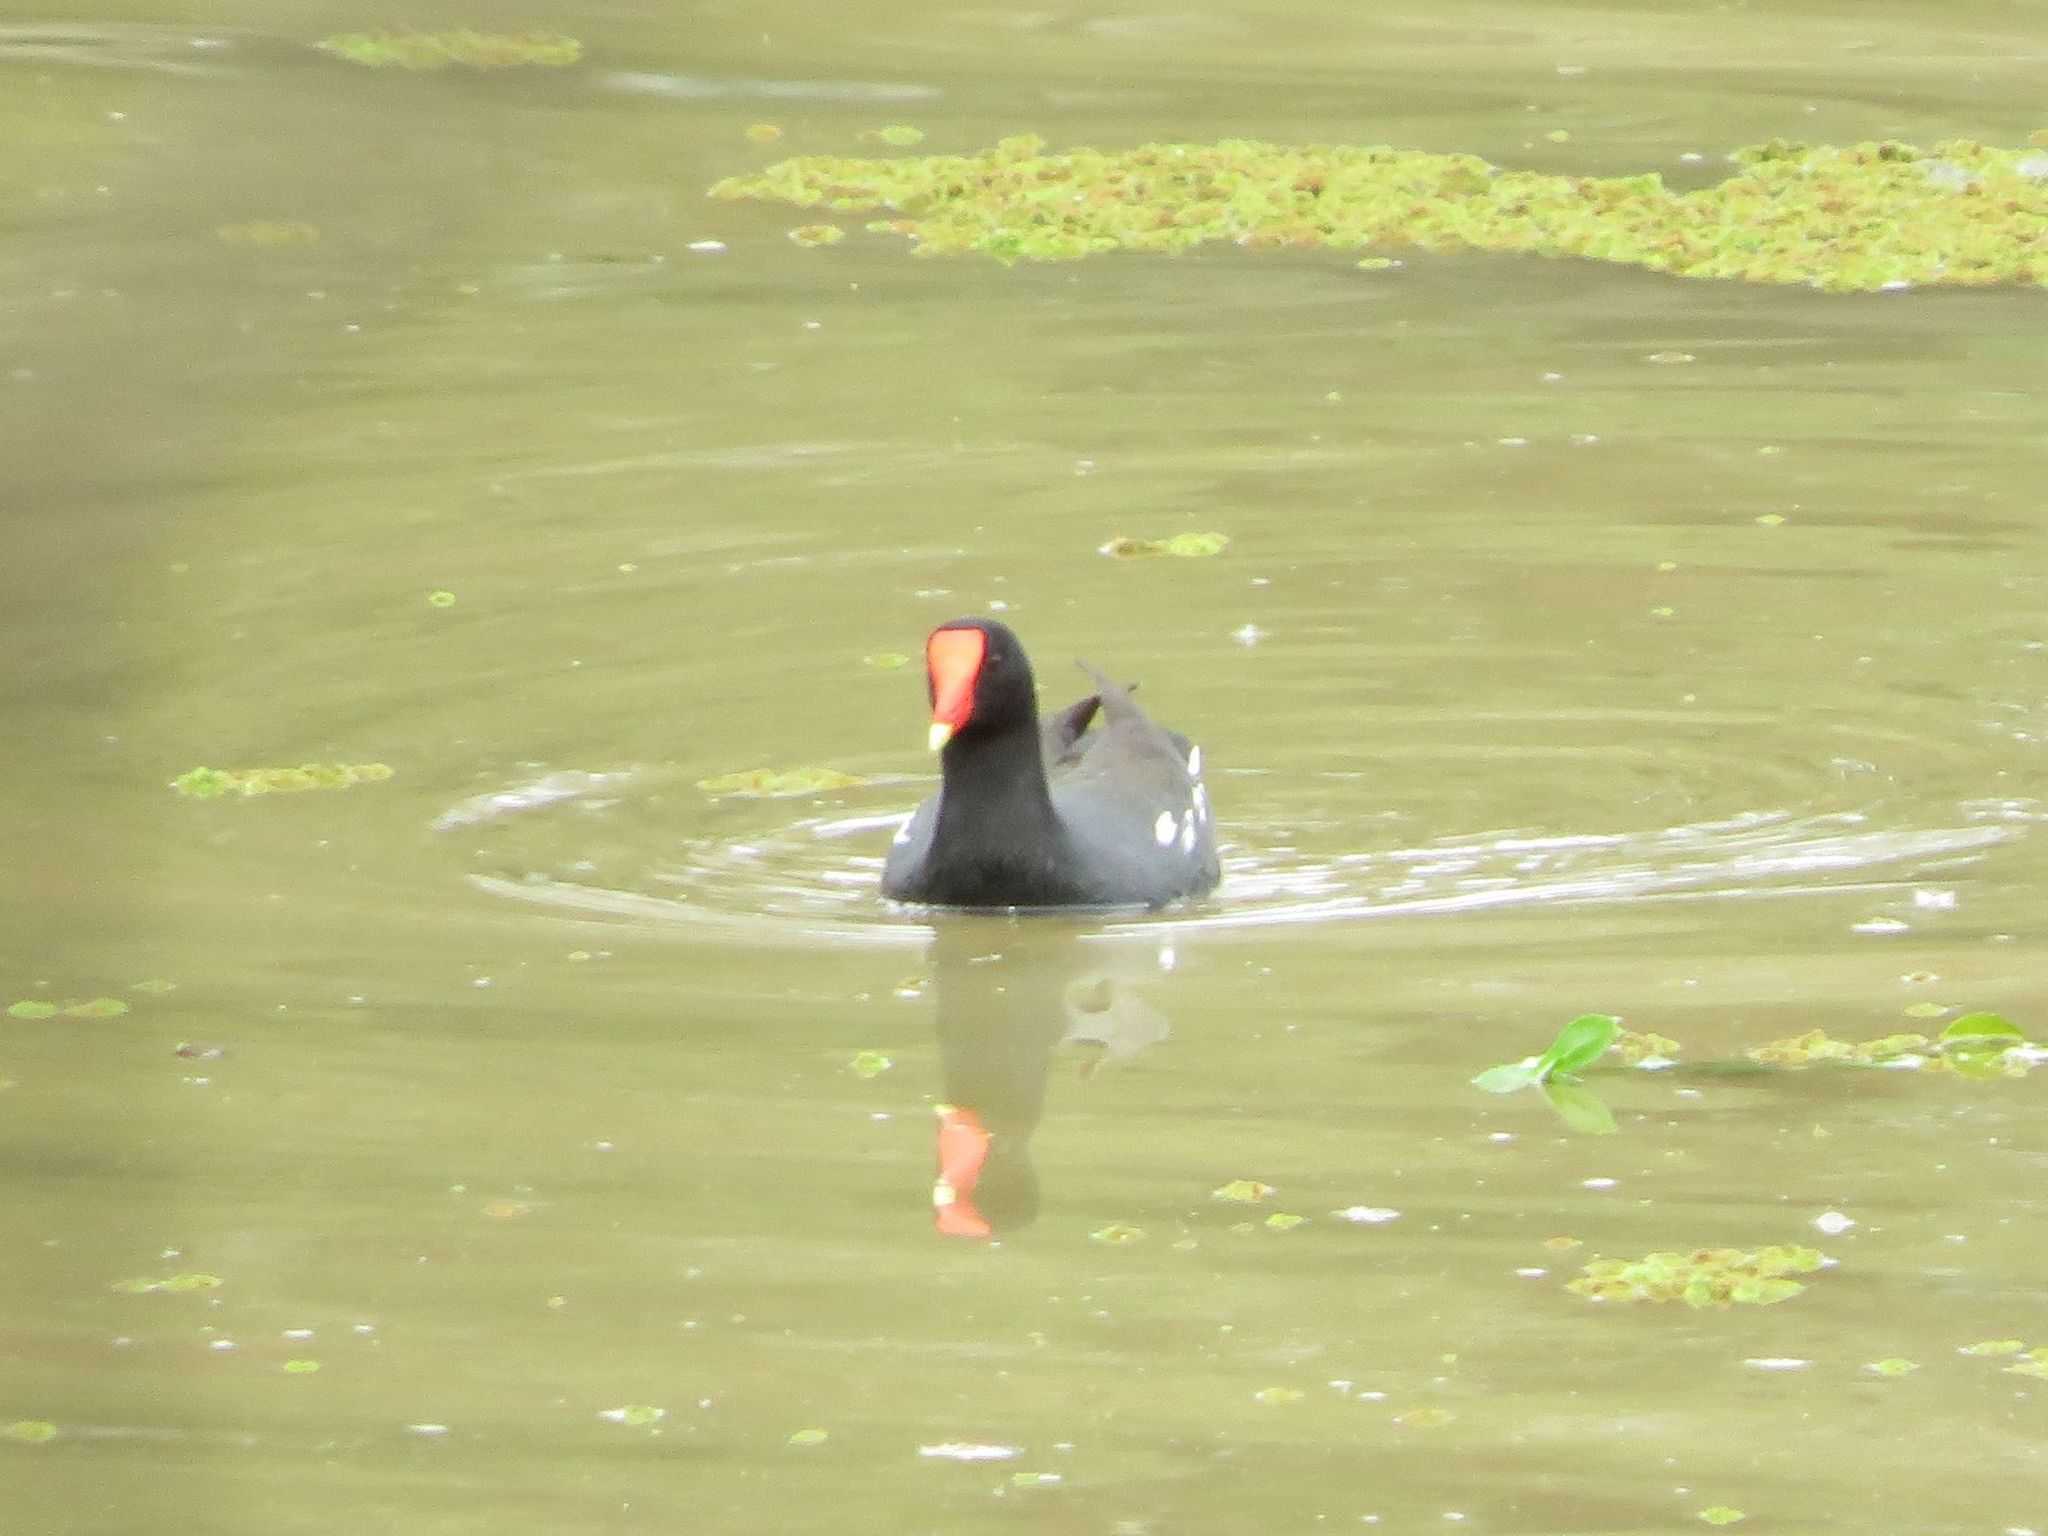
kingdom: Animalia
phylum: Chordata
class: Aves
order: Gruiformes
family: Rallidae
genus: Gallinula
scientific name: Gallinula chloropus
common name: Common moorhen
